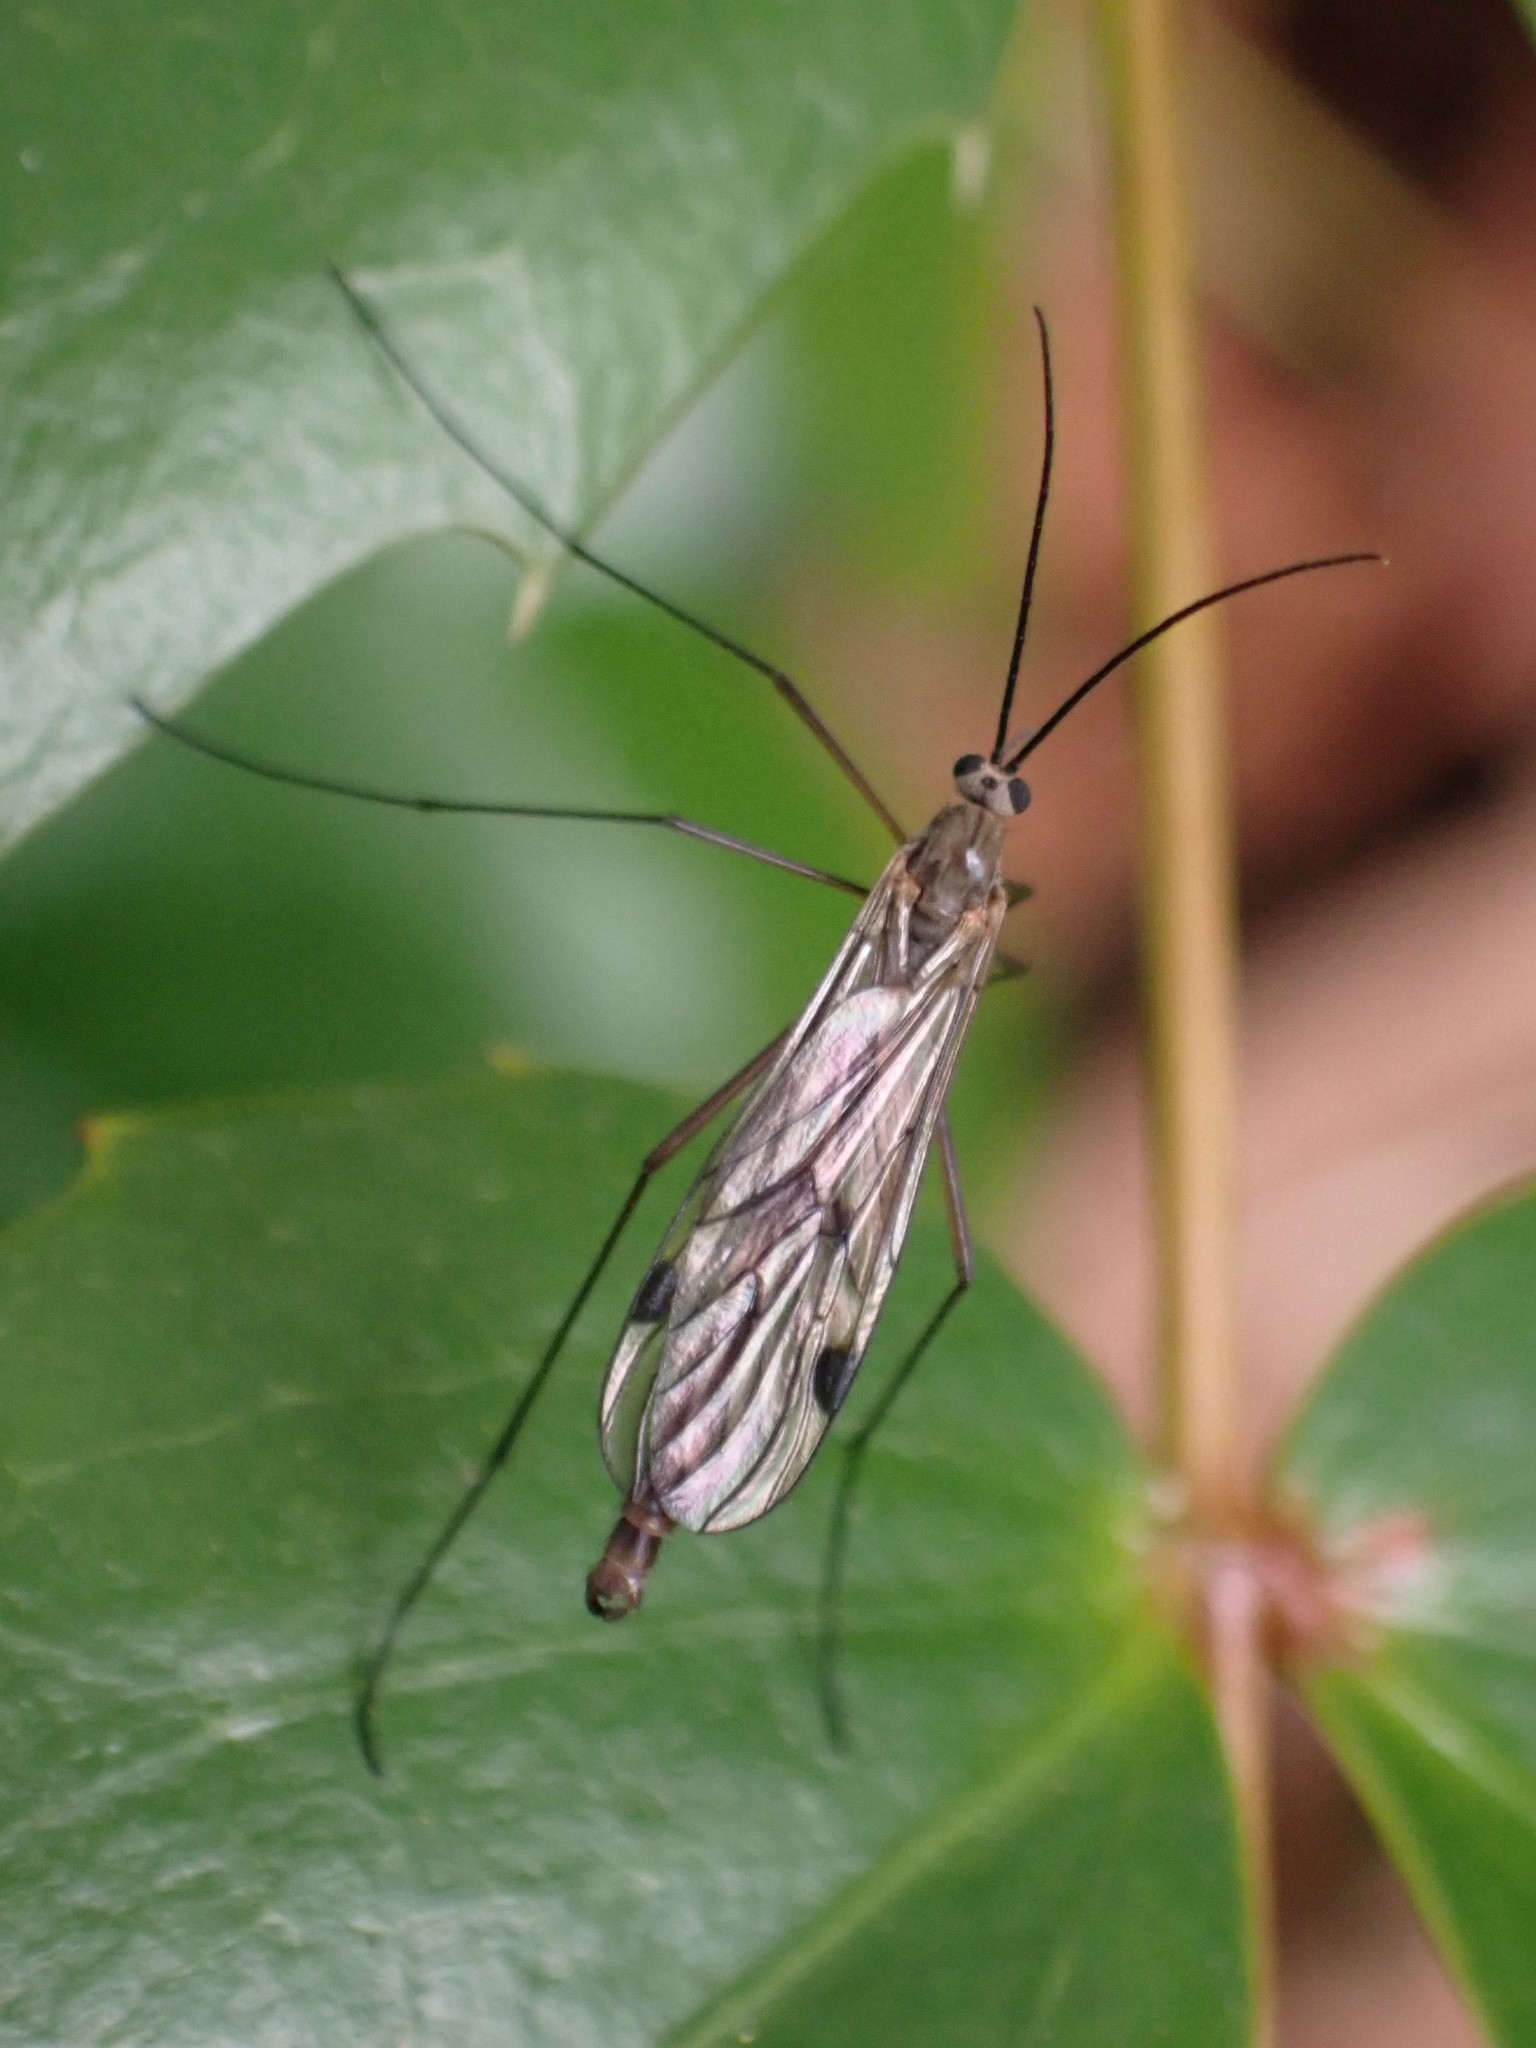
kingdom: Animalia
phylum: Arthropoda
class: Insecta
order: Diptera
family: Pachyneuridae
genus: Cramptonomyia
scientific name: Cramptonomyia spenceri
